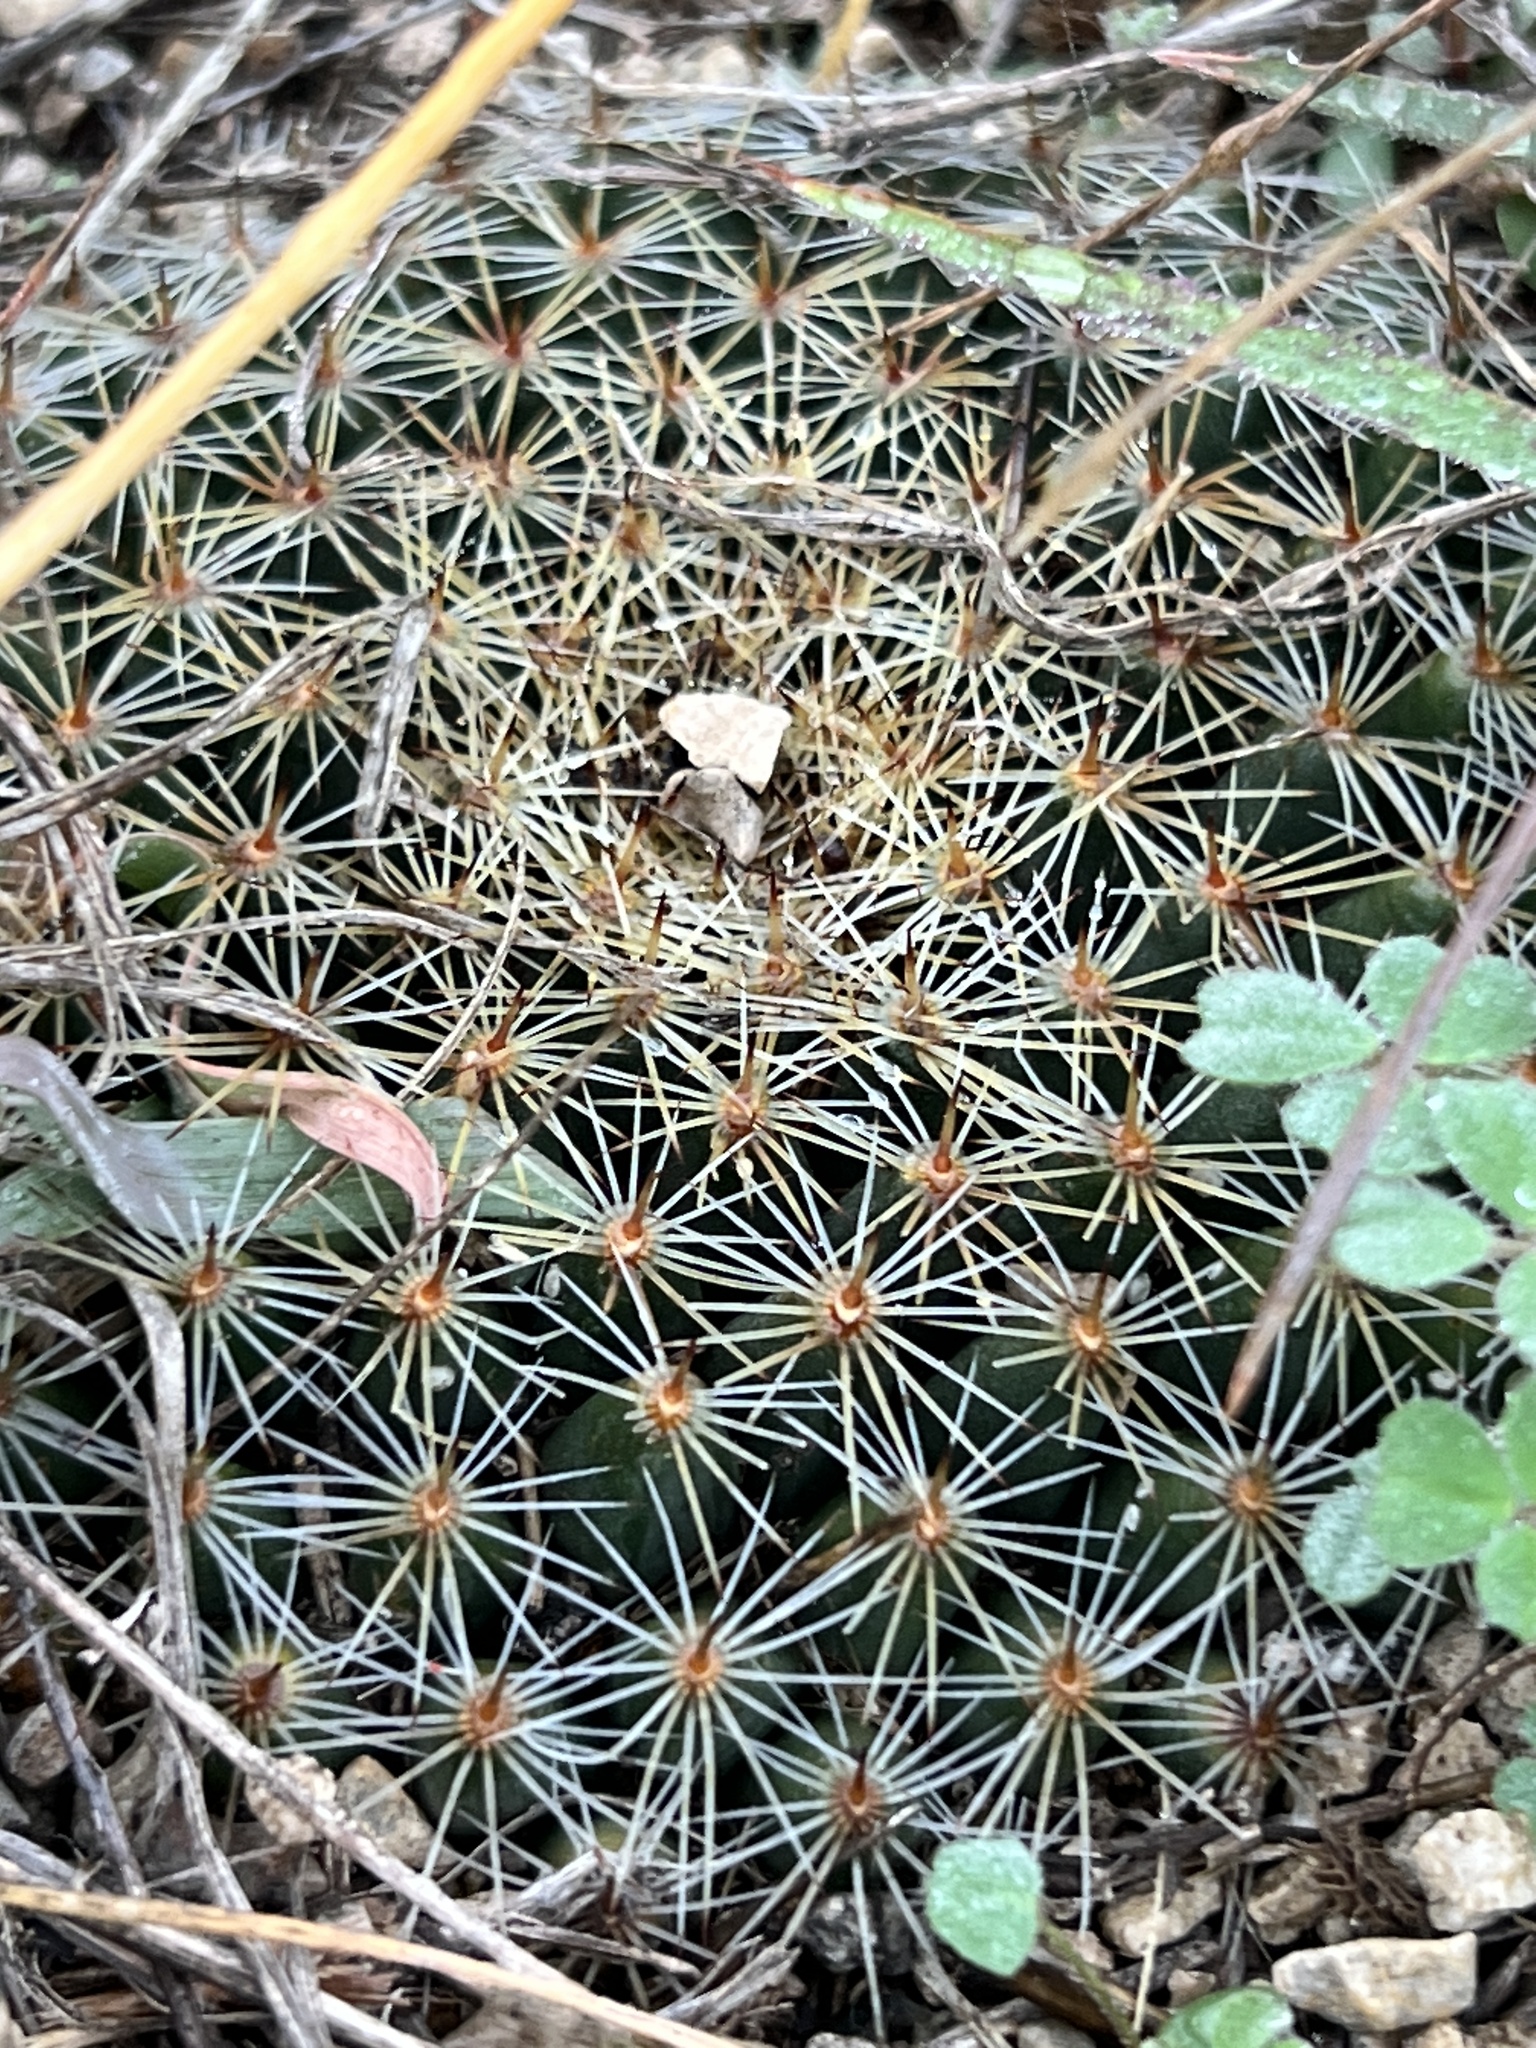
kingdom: Plantae
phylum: Tracheophyta
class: Magnoliopsida
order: Caryophyllales
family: Cactaceae
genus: Mammillaria
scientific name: Mammillaria heyderi
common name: Little nipple cactus
